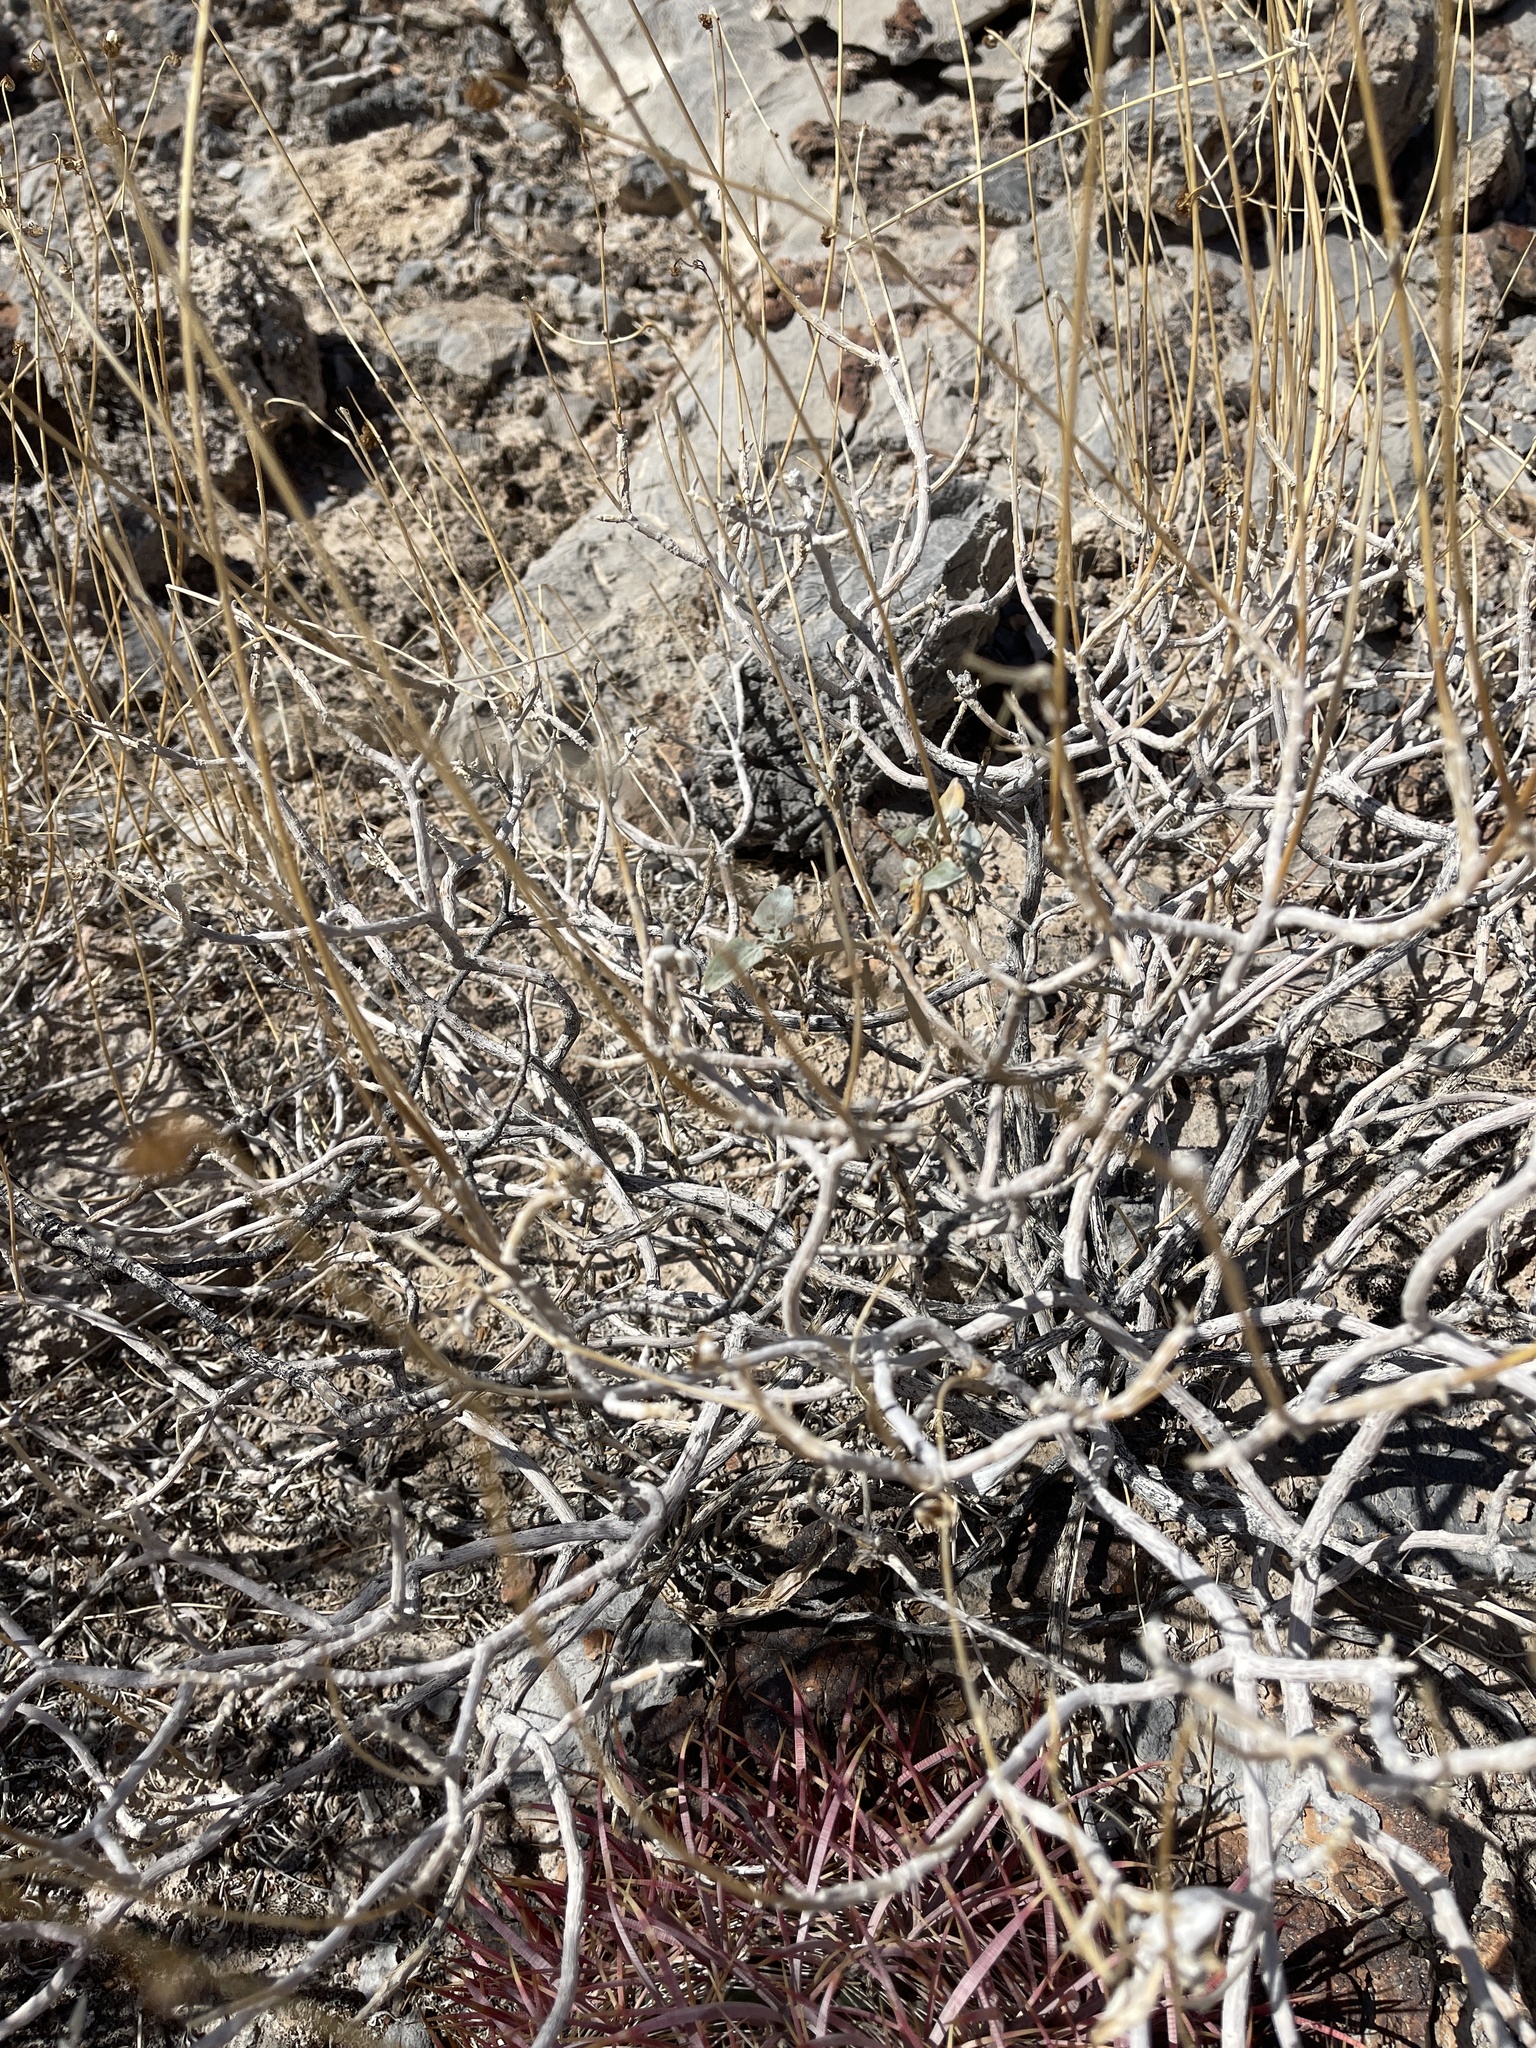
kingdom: Plantae
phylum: Tracheophyta
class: Magnoliopsida
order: Asterales
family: Asteraceae
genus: Encelia
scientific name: Encelia farinosa
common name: Brittlebush
